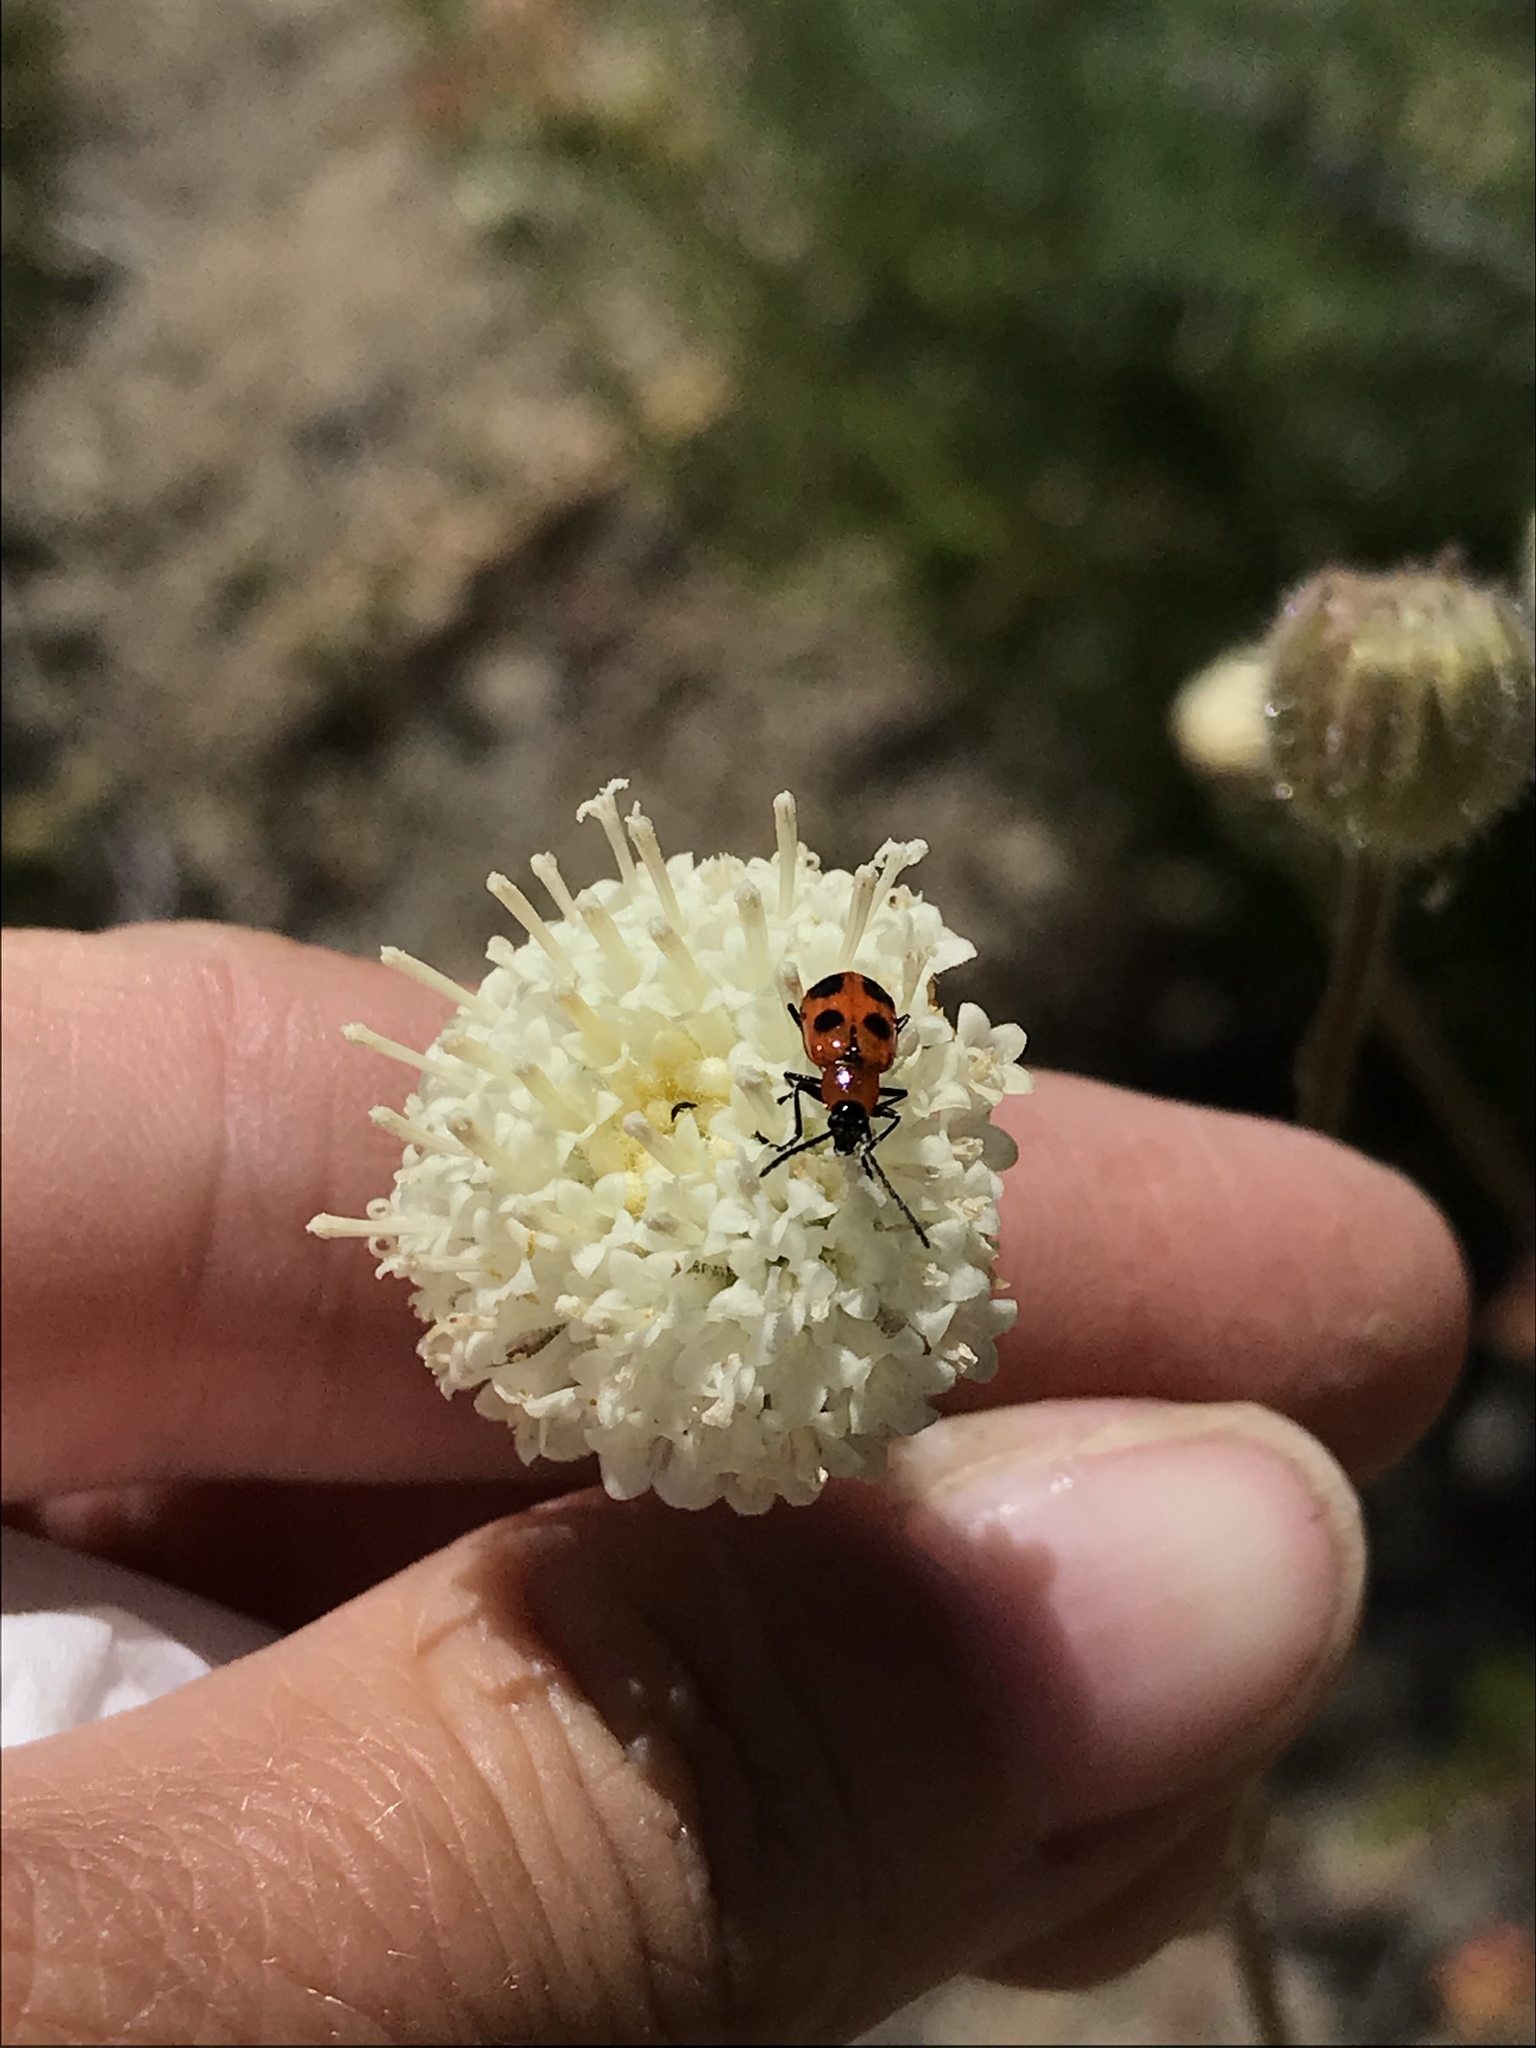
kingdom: Animalia
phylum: Arthropoda
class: Insecta
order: Coleoptera
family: Chrysomelidae
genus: Androlyperus
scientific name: Androlyperus maculatus
